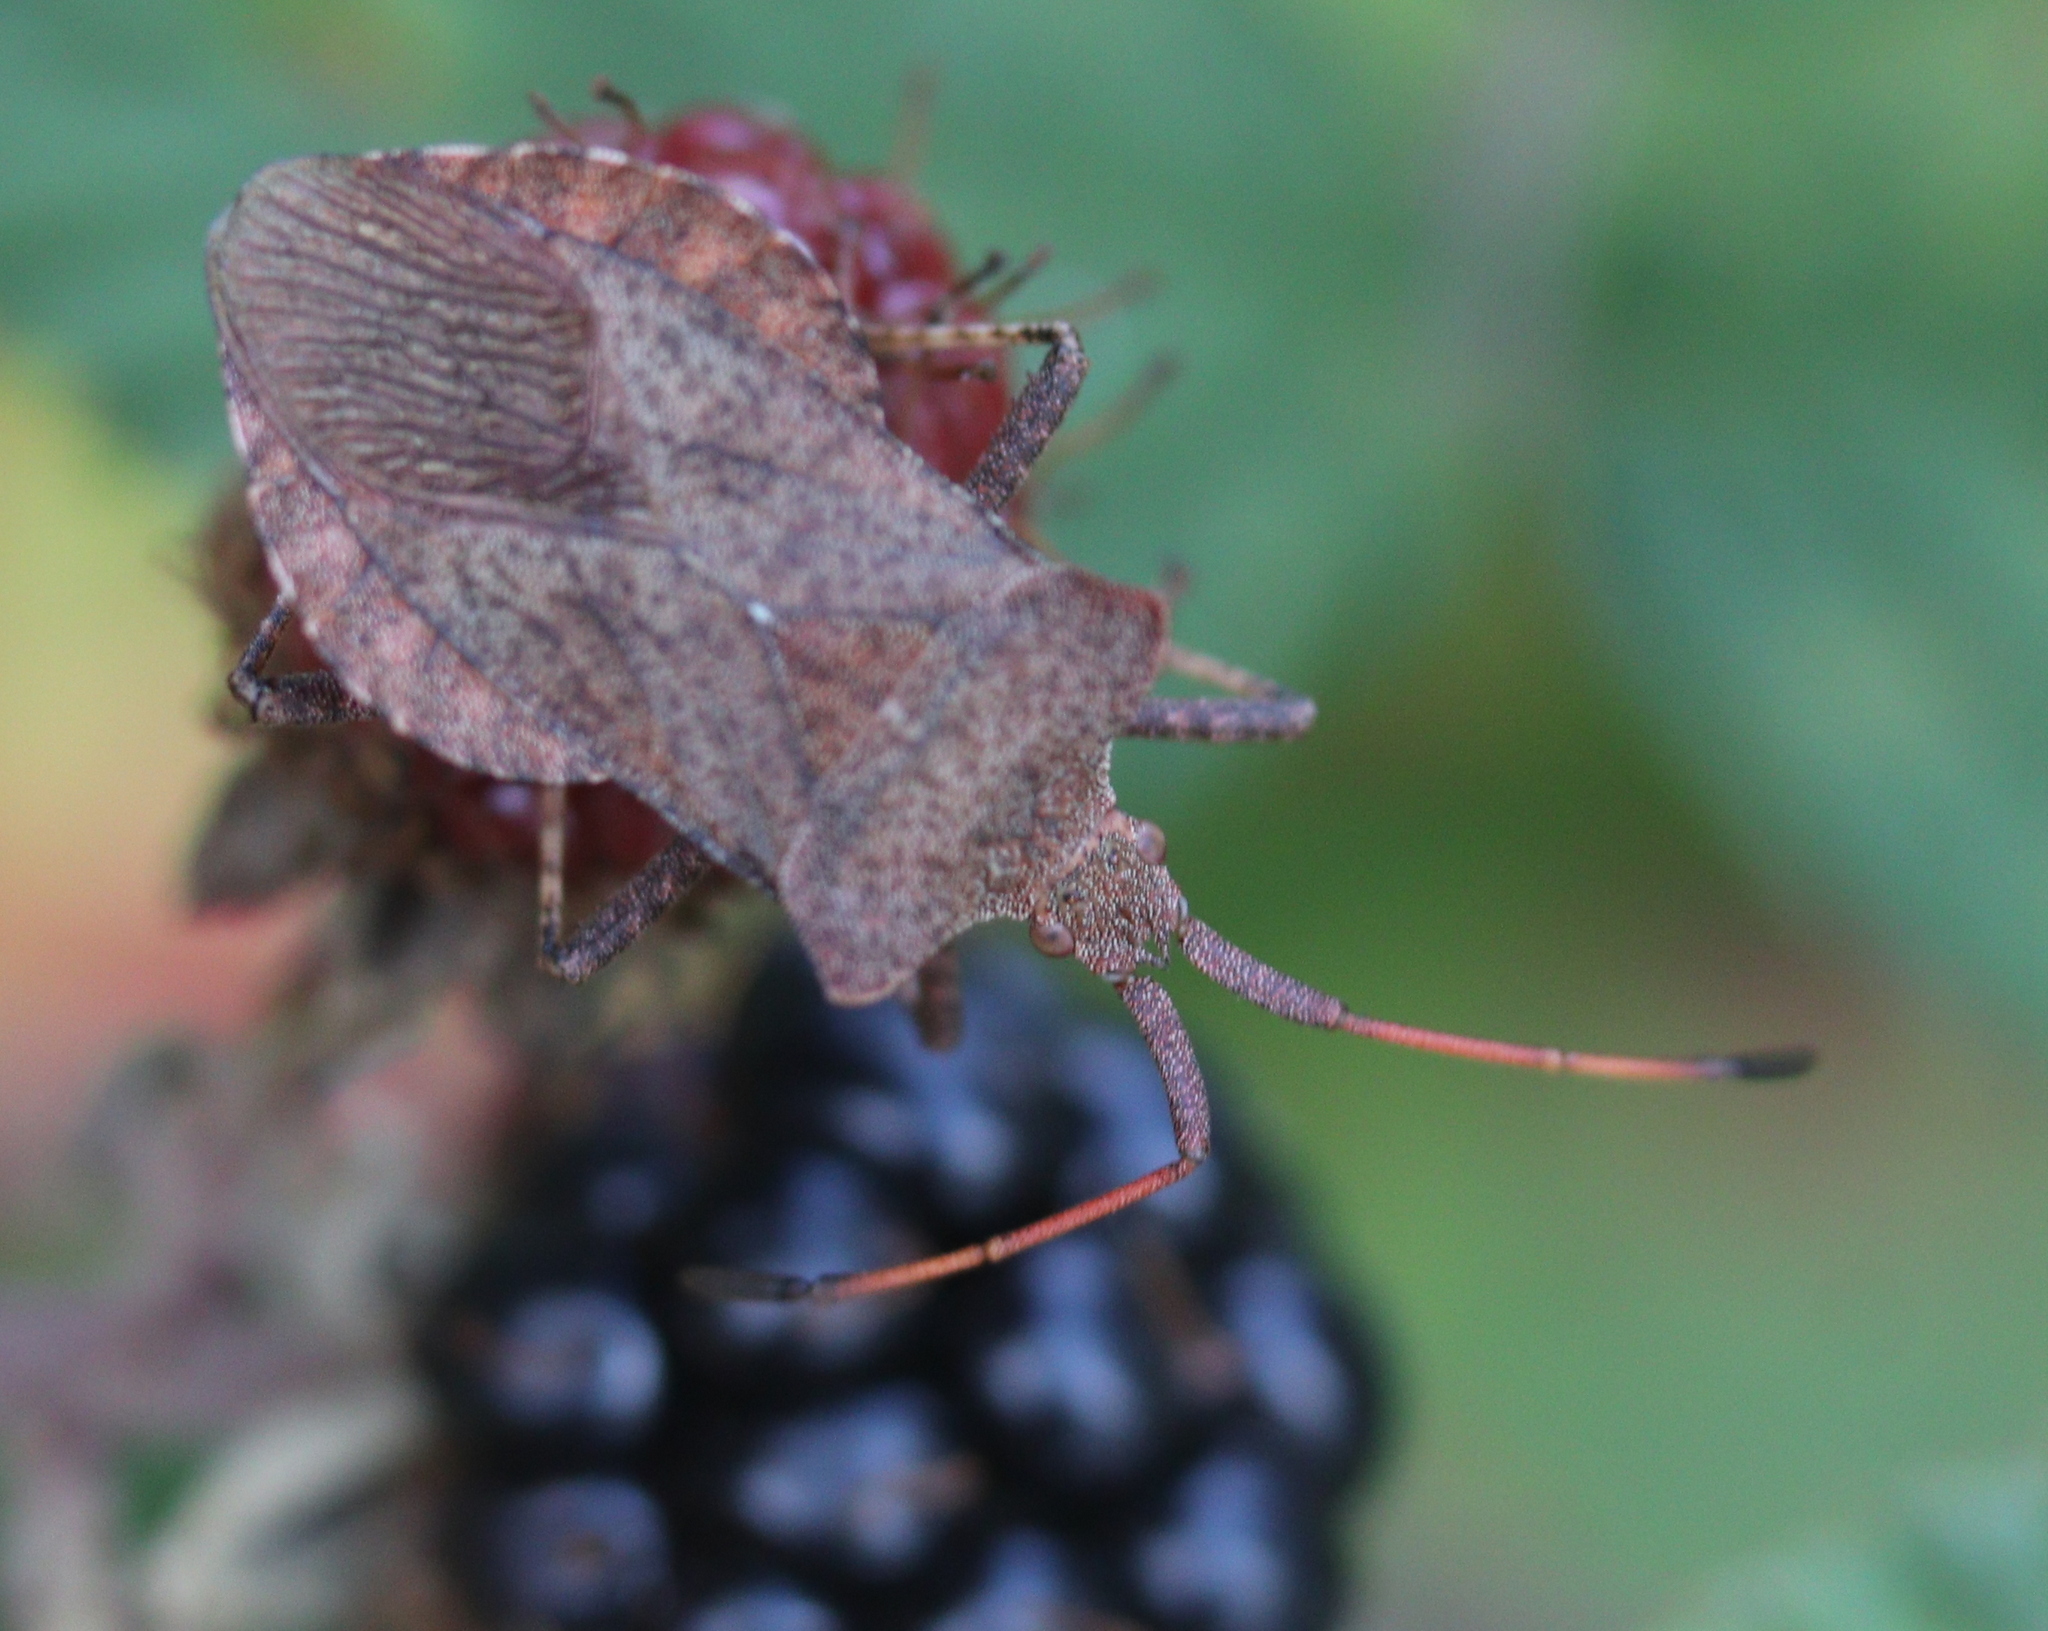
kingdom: Animalia
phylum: Arthropoda
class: Insecta
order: Hemiptera
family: Coreidae
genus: Coreus
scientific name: Coreus marginatus
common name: Dock bug
